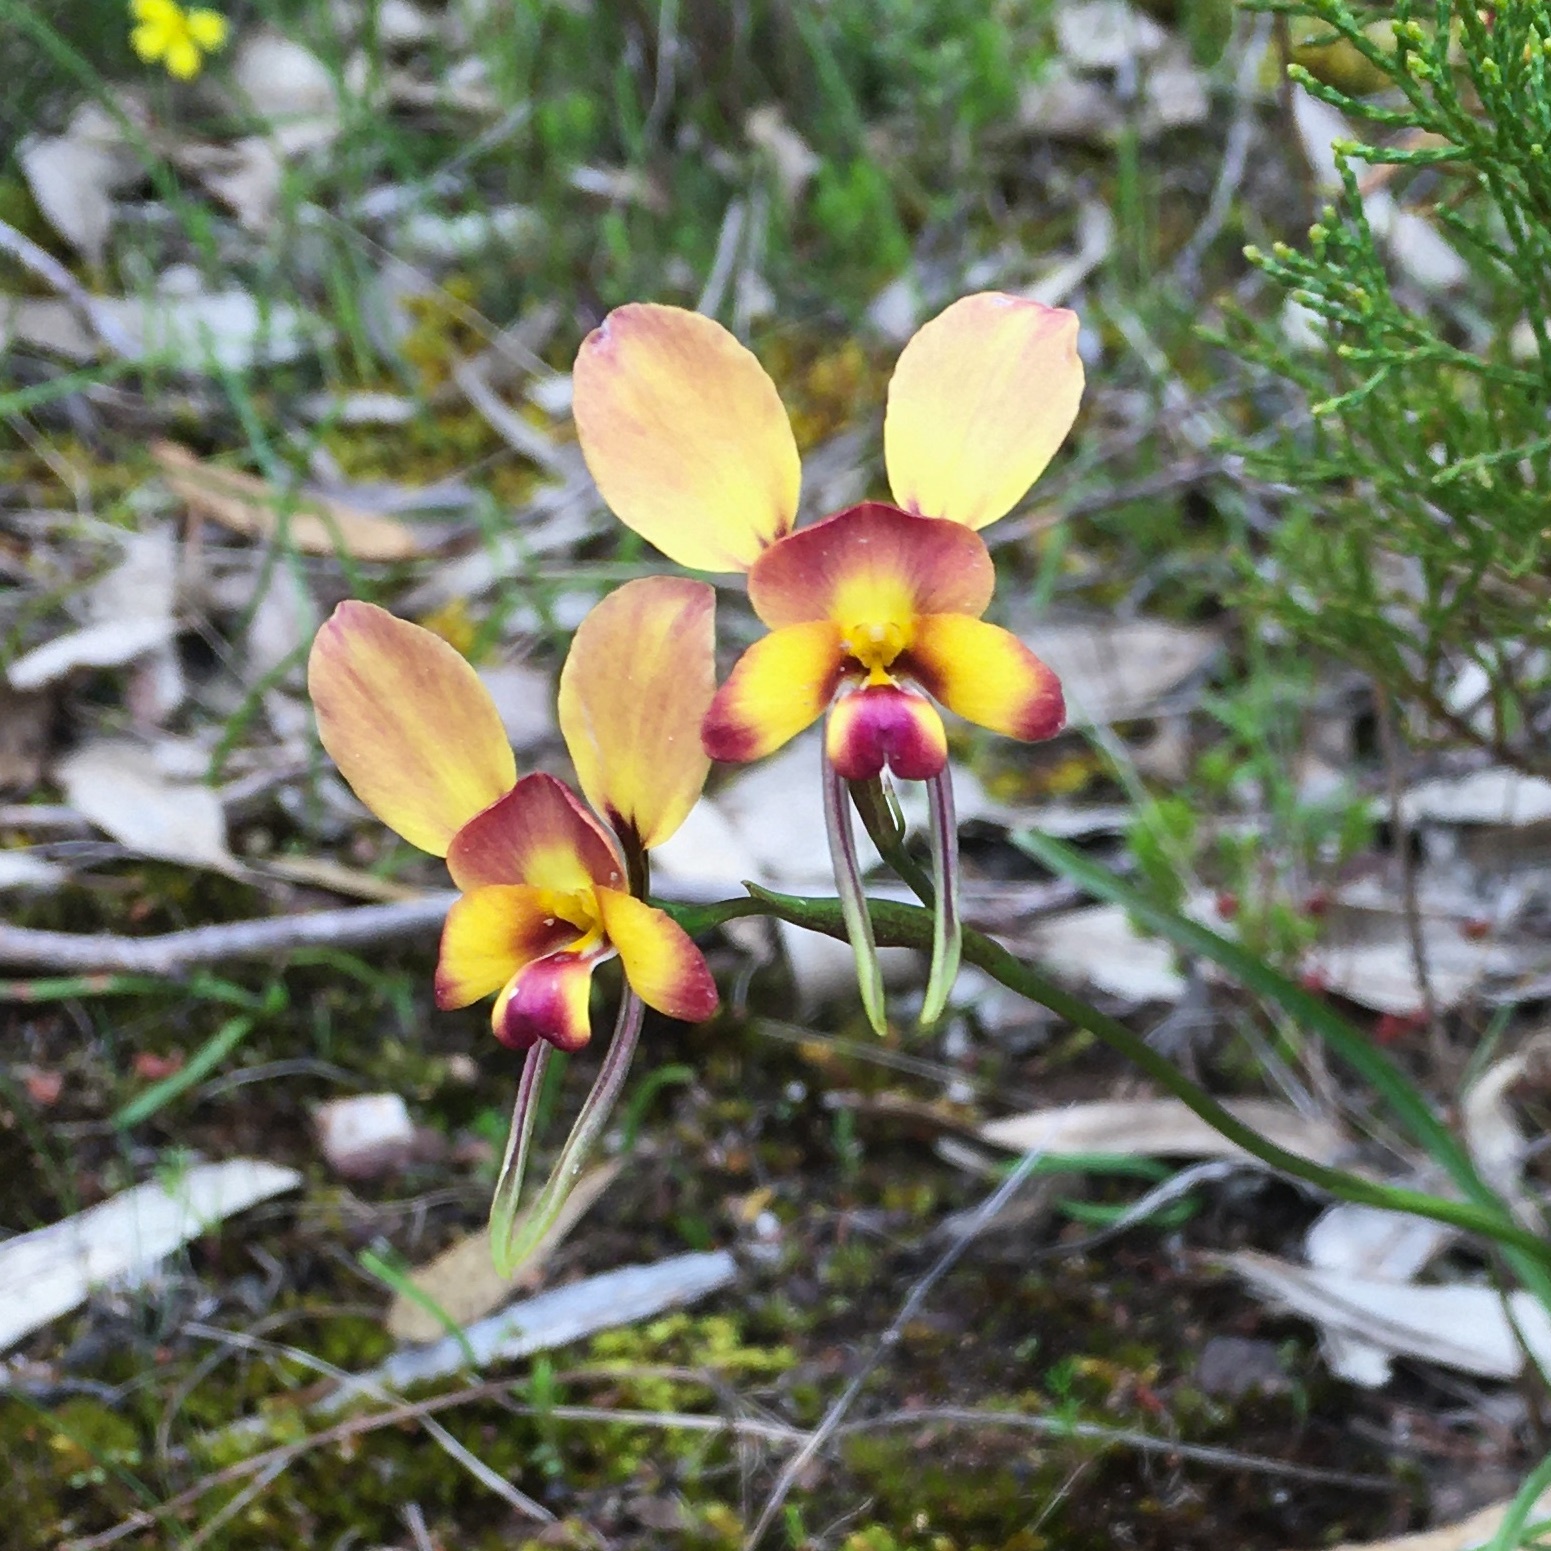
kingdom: Plantae
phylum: Tracheophyta
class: Liliopsida
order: Asparagales
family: Orchidaceae
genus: Diuris
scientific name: Diuris orientis
